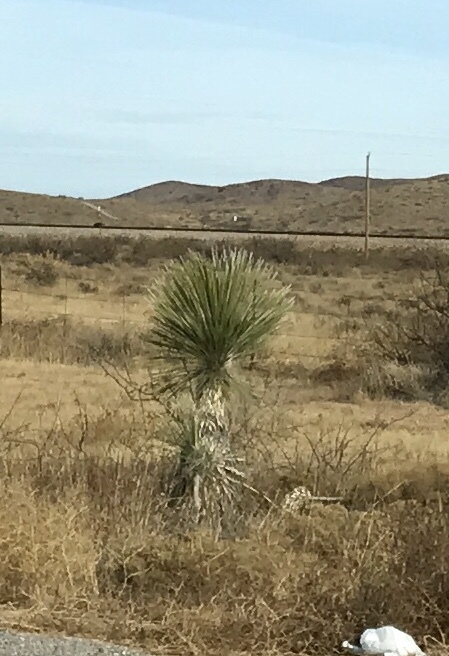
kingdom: Plantae
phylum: Tracheophyta
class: Liliopsida
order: Asparagales
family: Asparagaceae
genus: Yucca
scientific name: Yucca elata
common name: Palmella
